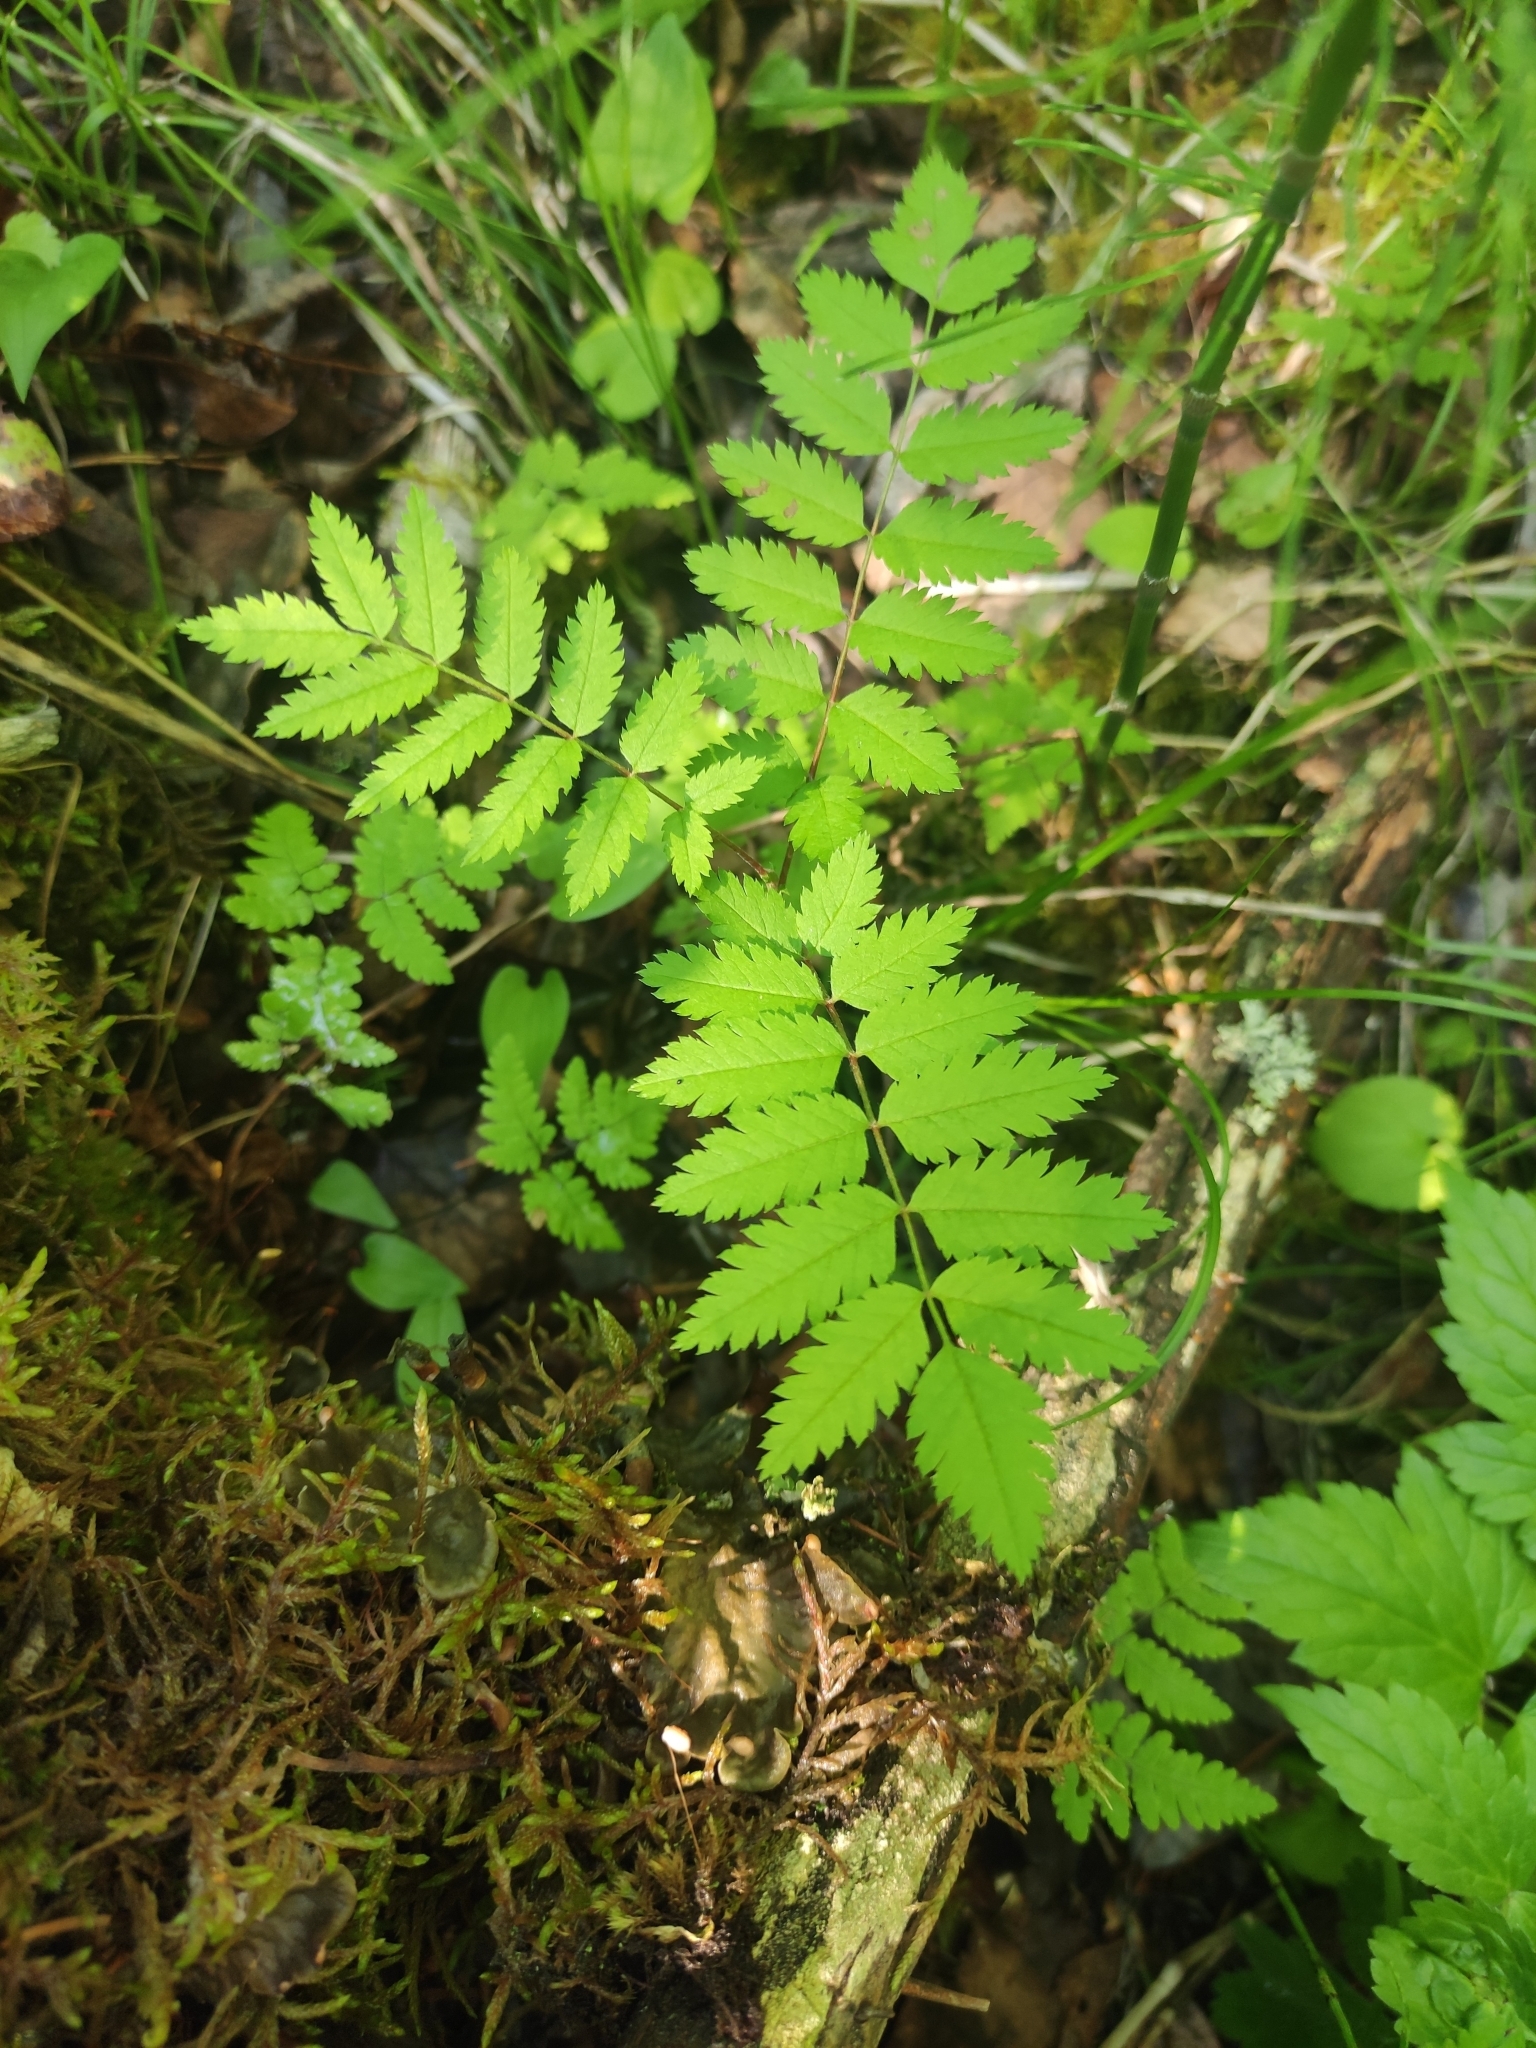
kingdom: Plantae
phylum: Tracheophyta
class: Magnoliopsida
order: Rosales
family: Rosaceae
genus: Sorbus
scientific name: Sorbus aucuparia
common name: Rowan
